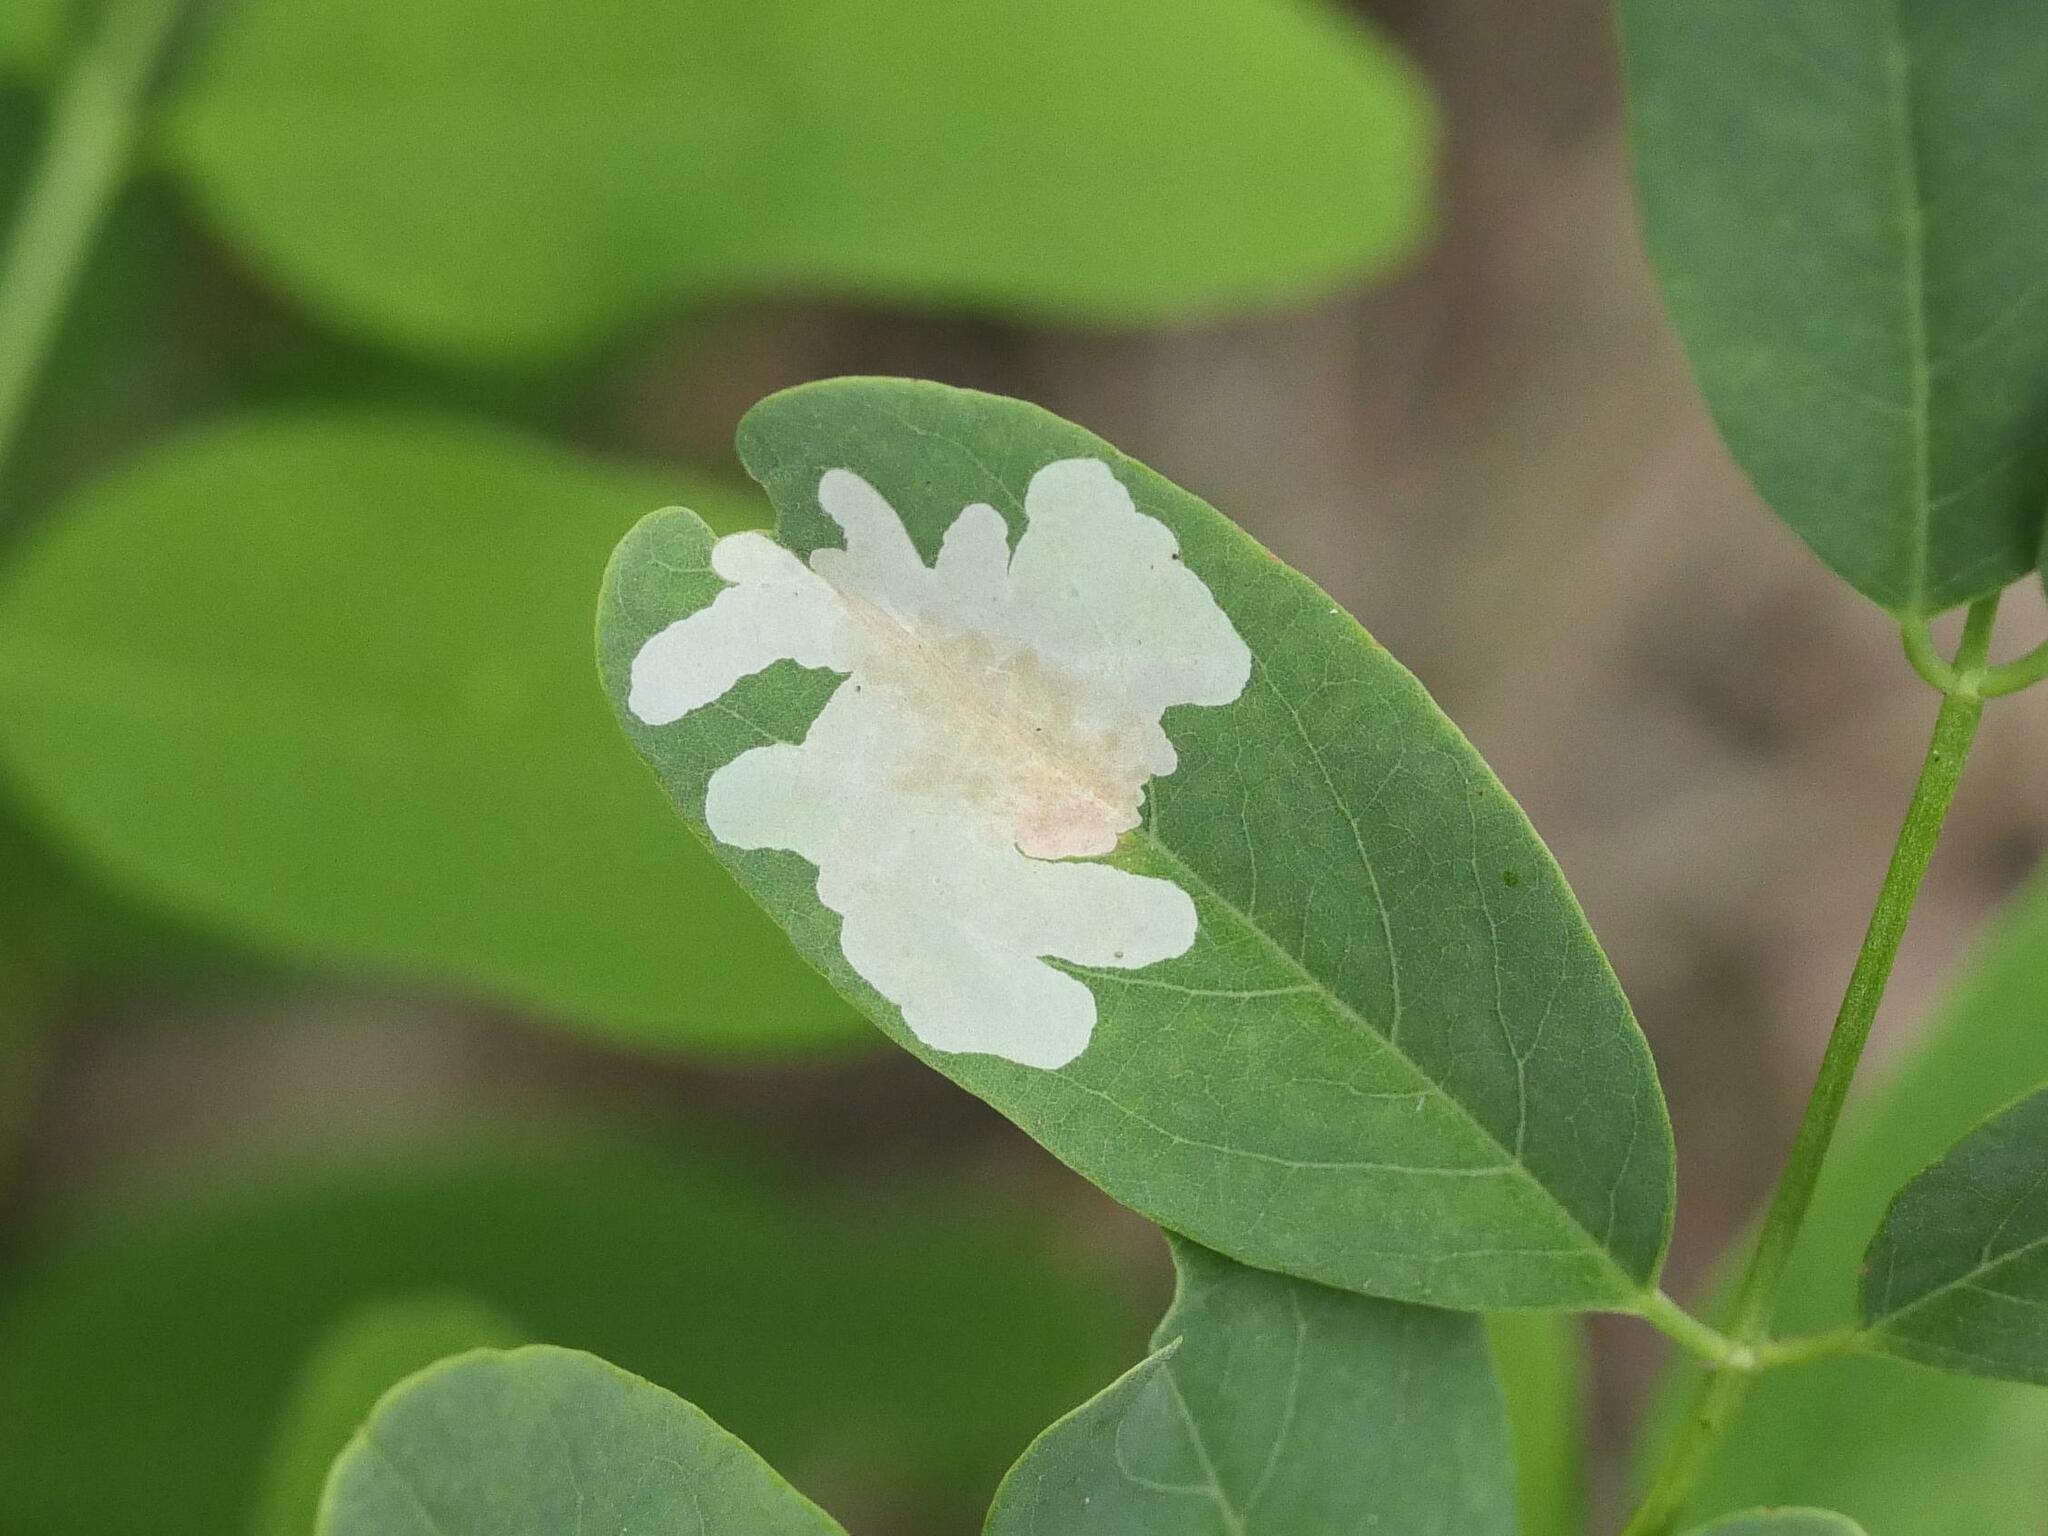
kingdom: Animalia
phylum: Arthropoda
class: Insecta
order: Lepidoptera
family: Gracillariidae
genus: Parectopa
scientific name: Parectopa robiniella
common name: Locust digitate leafminer
